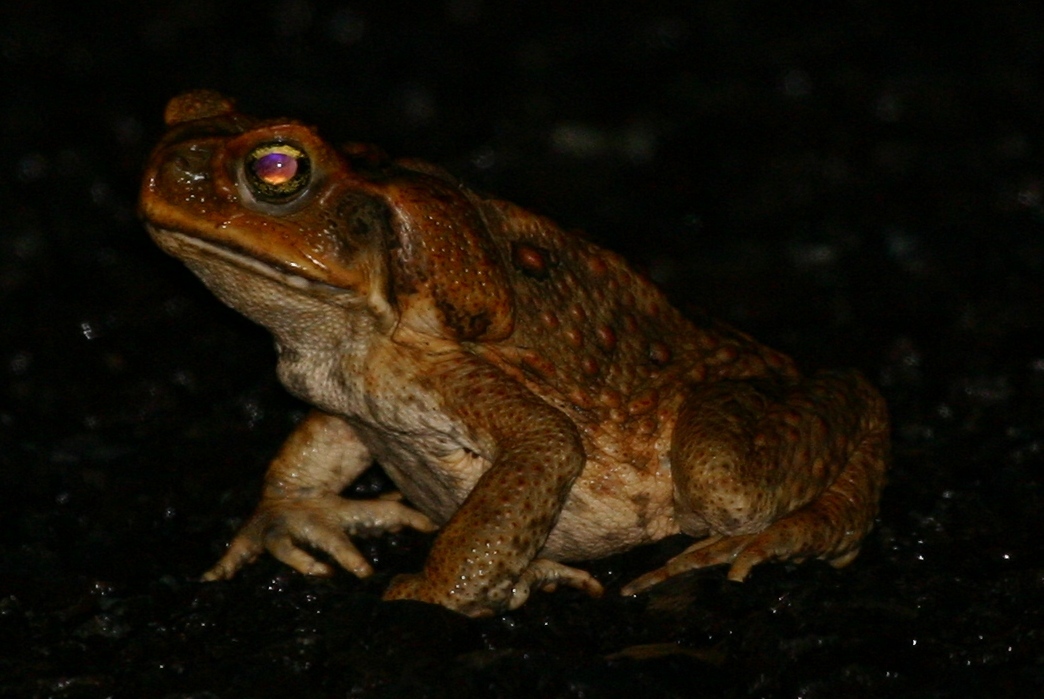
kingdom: Animalia
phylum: Chordata
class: Amphibia
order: Anura
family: Bufonidae
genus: Rhinella
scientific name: Rhinella marina
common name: Cane toad
